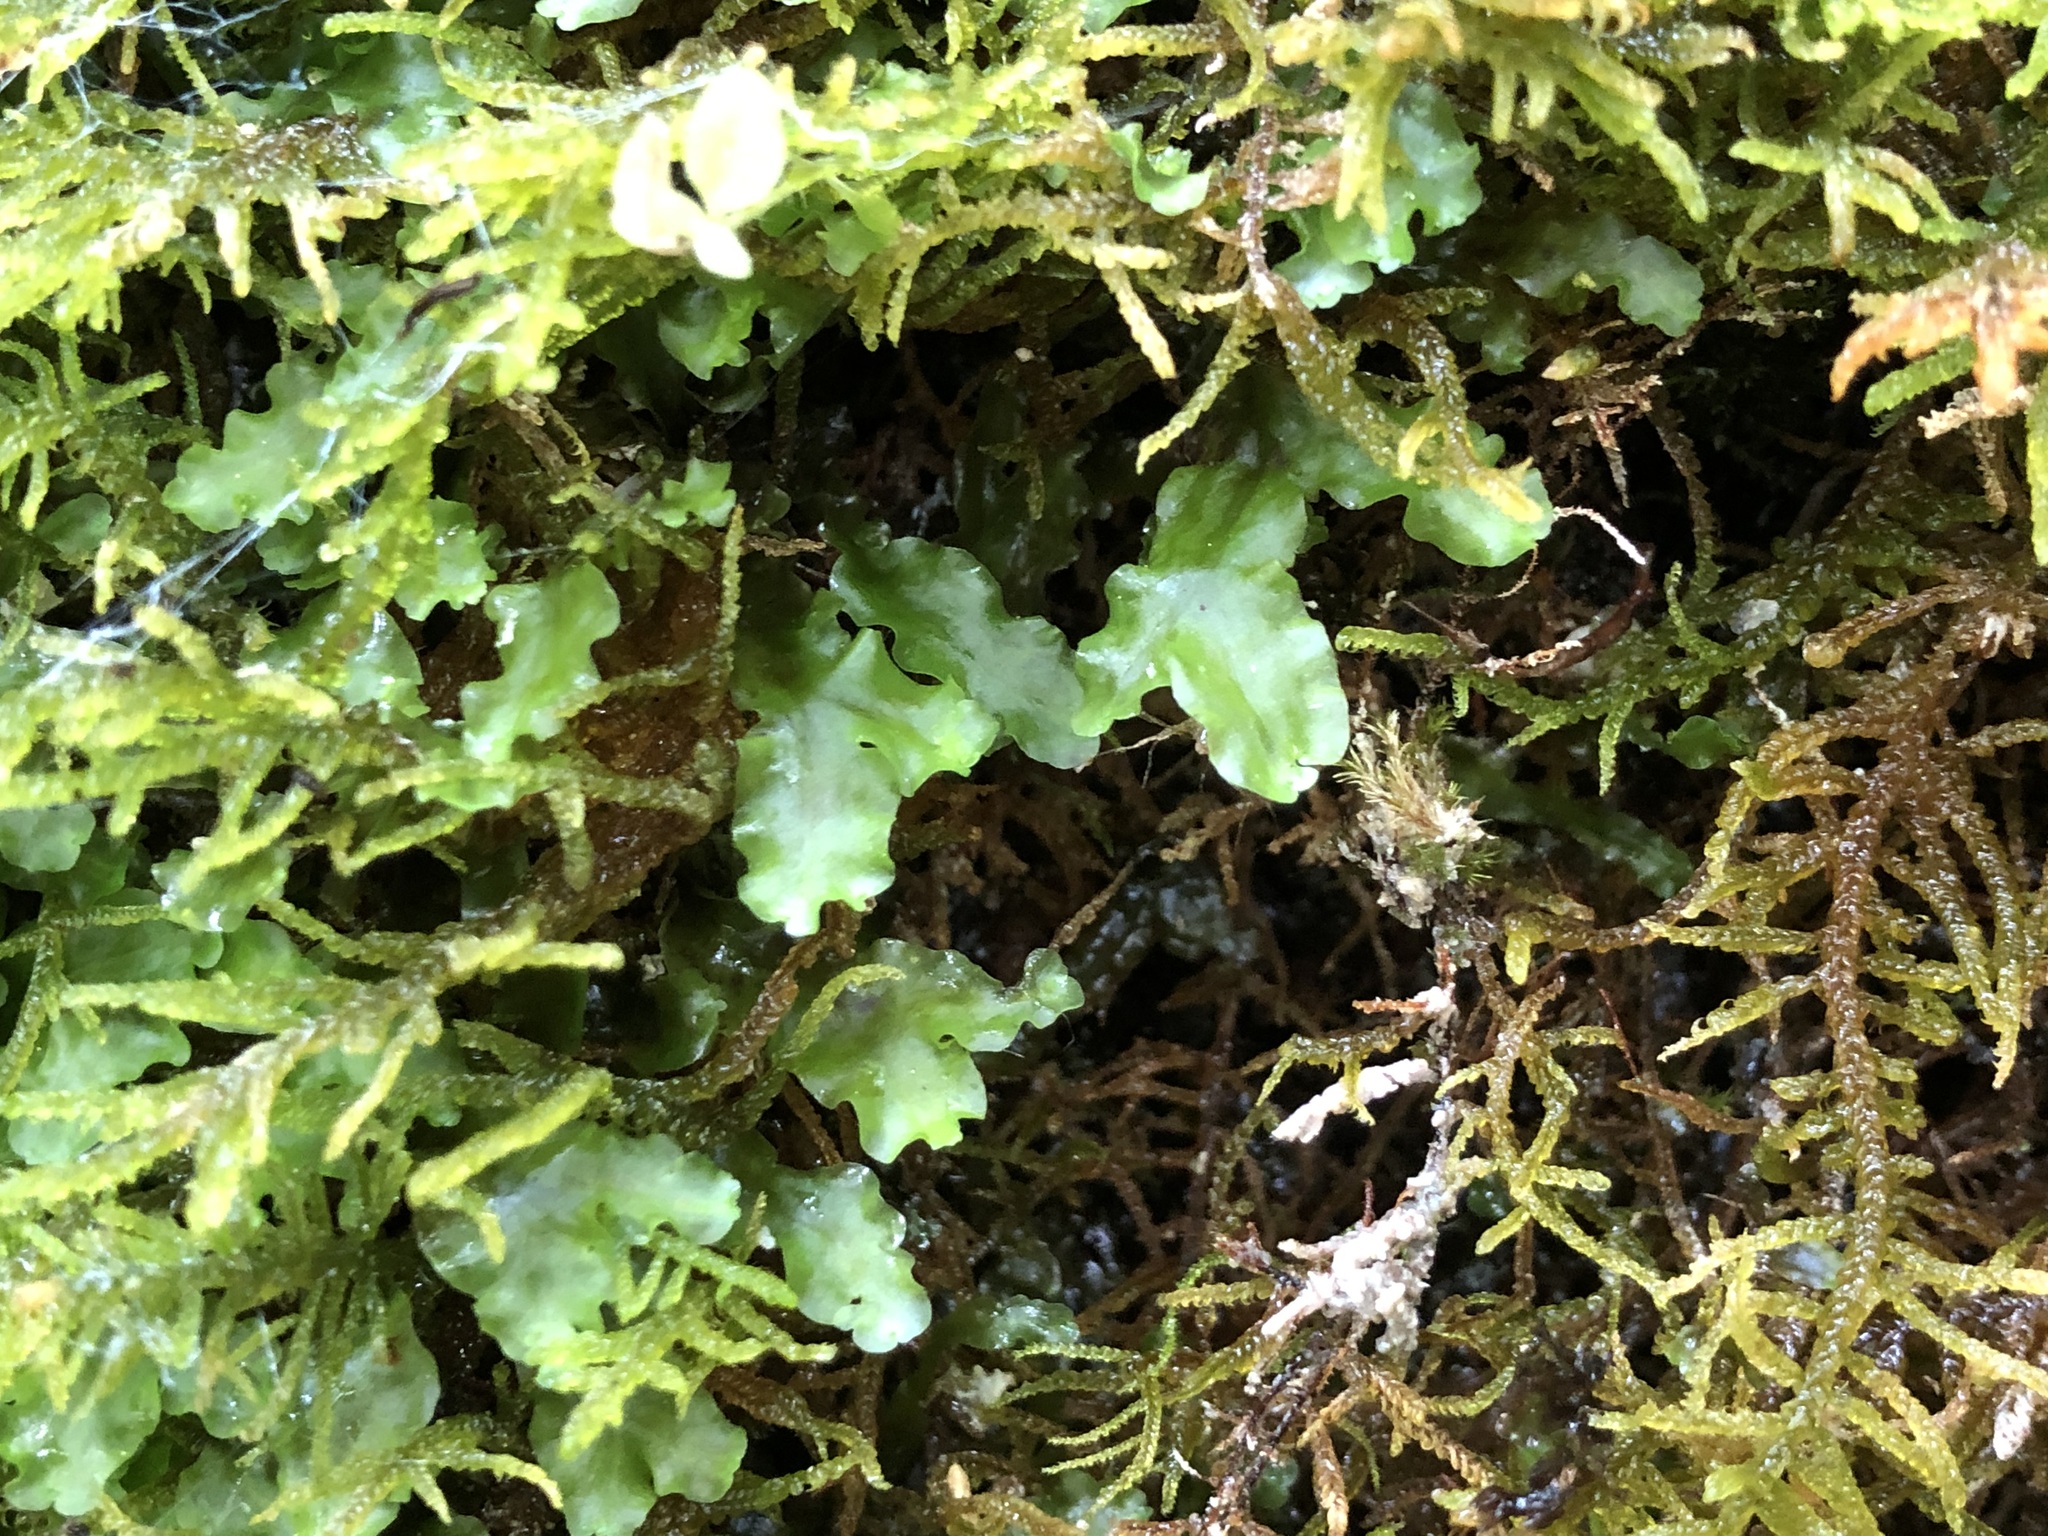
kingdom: Plantae
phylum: Marchantiophyta
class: Jungermanniopsida
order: Metzgeriales
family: Aneuraceae
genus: Aneura
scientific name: Aneura pinguis
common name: Common greasewort
